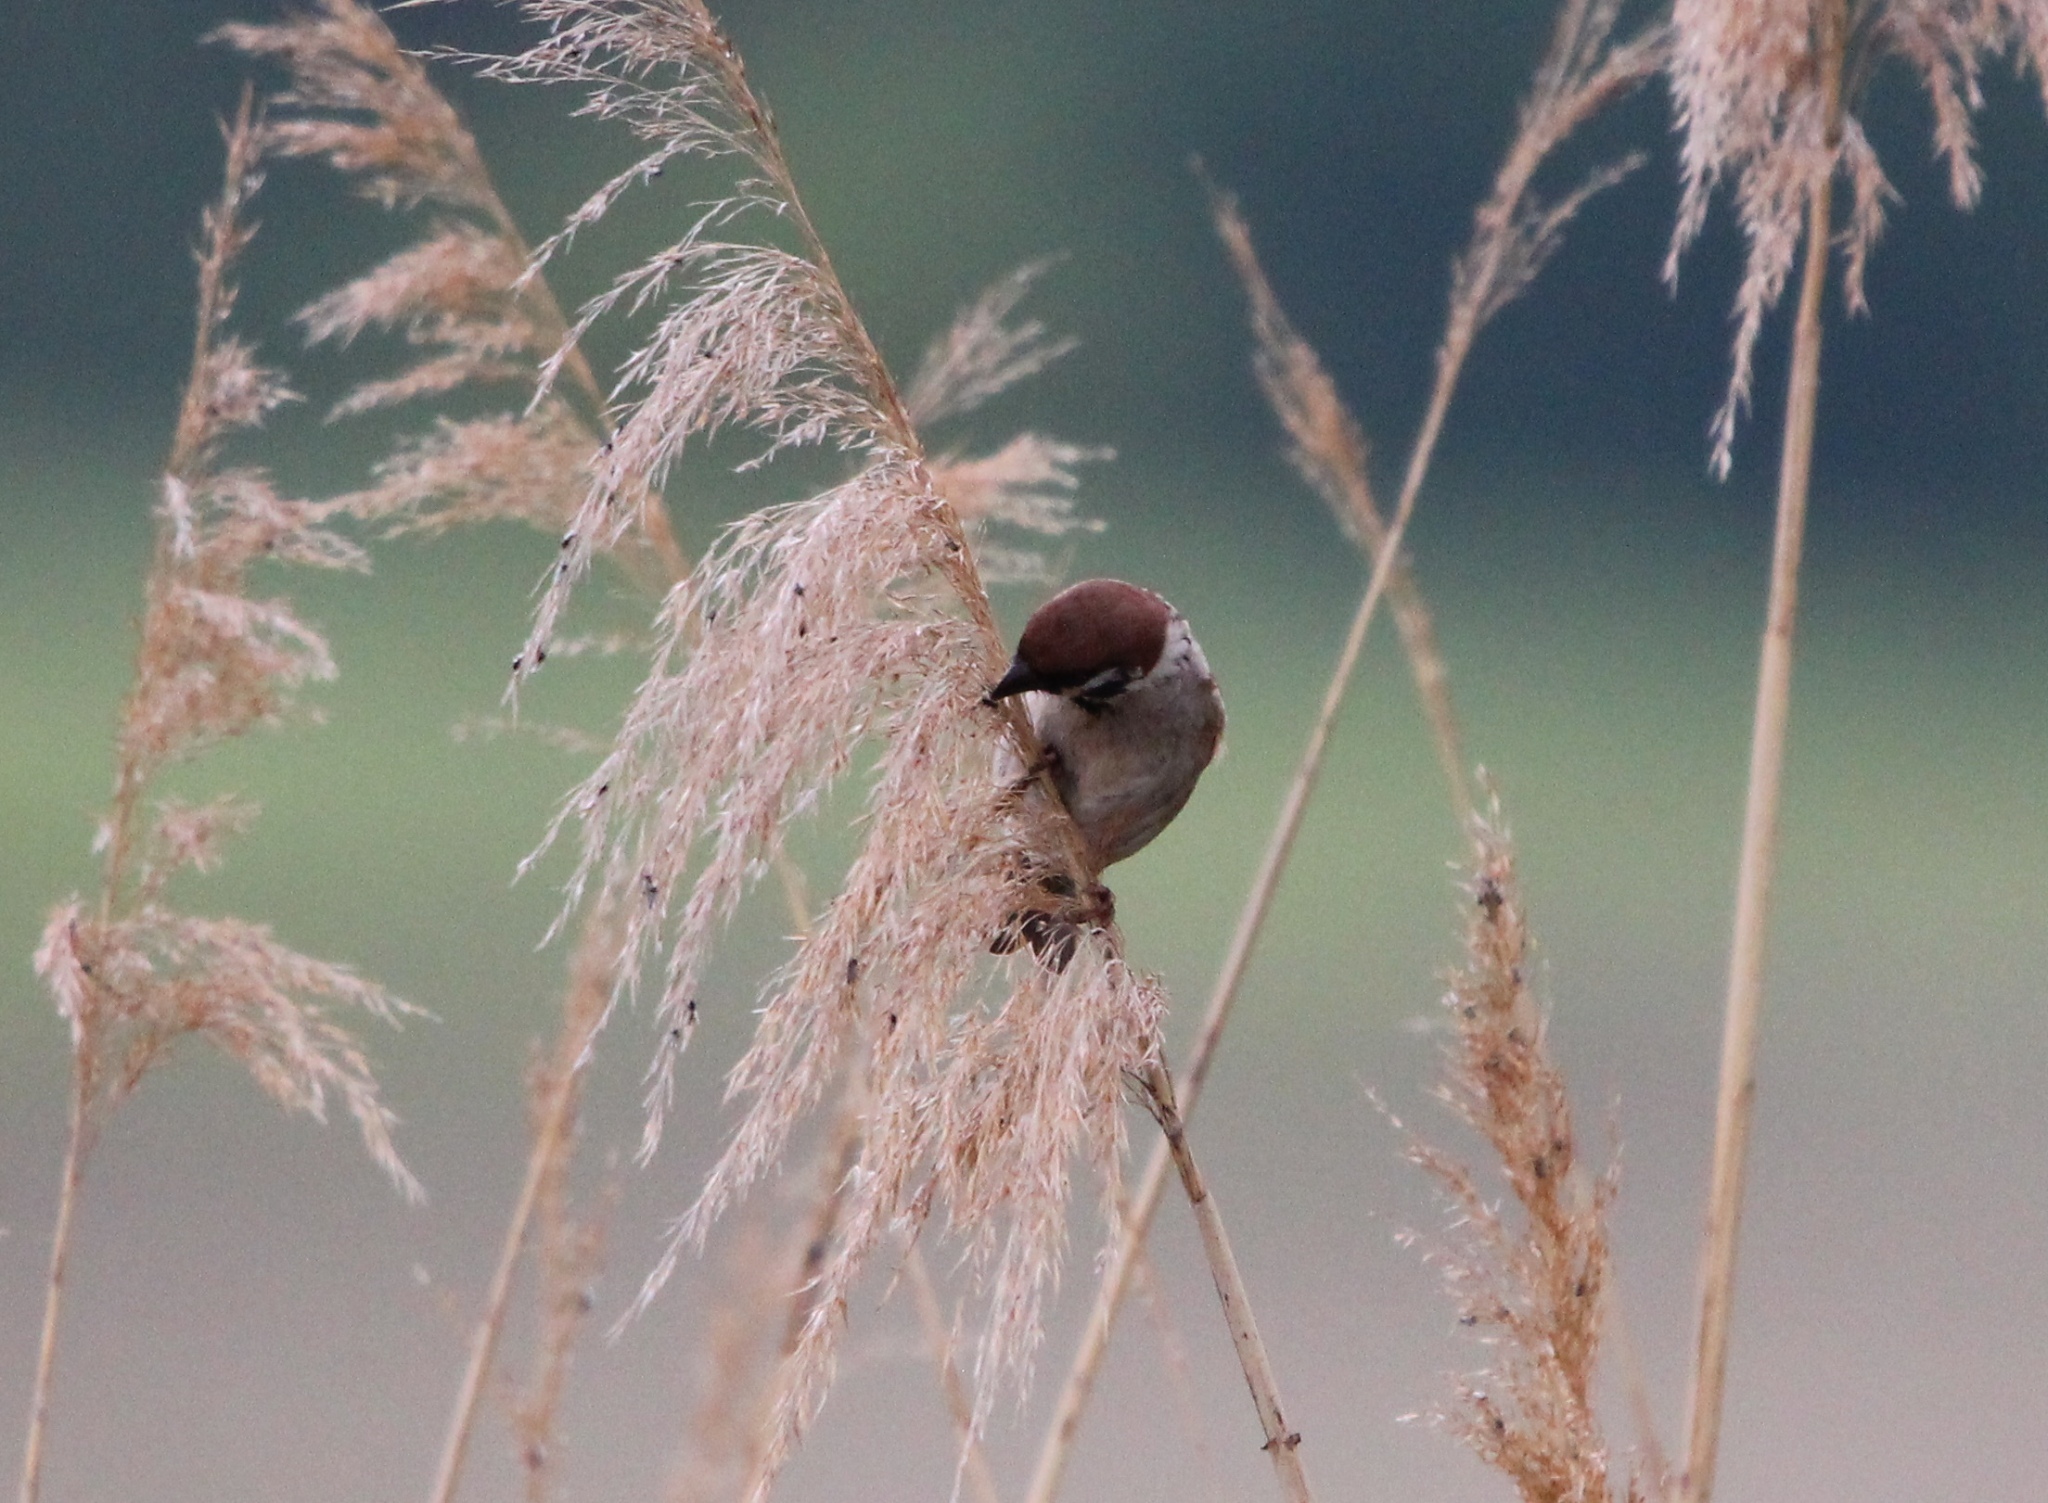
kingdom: Animalia
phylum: Chordata
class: Aves
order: Passeriformes
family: Passeridae
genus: Passer
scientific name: Passer montanus
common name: Eurasian tree sparrow
